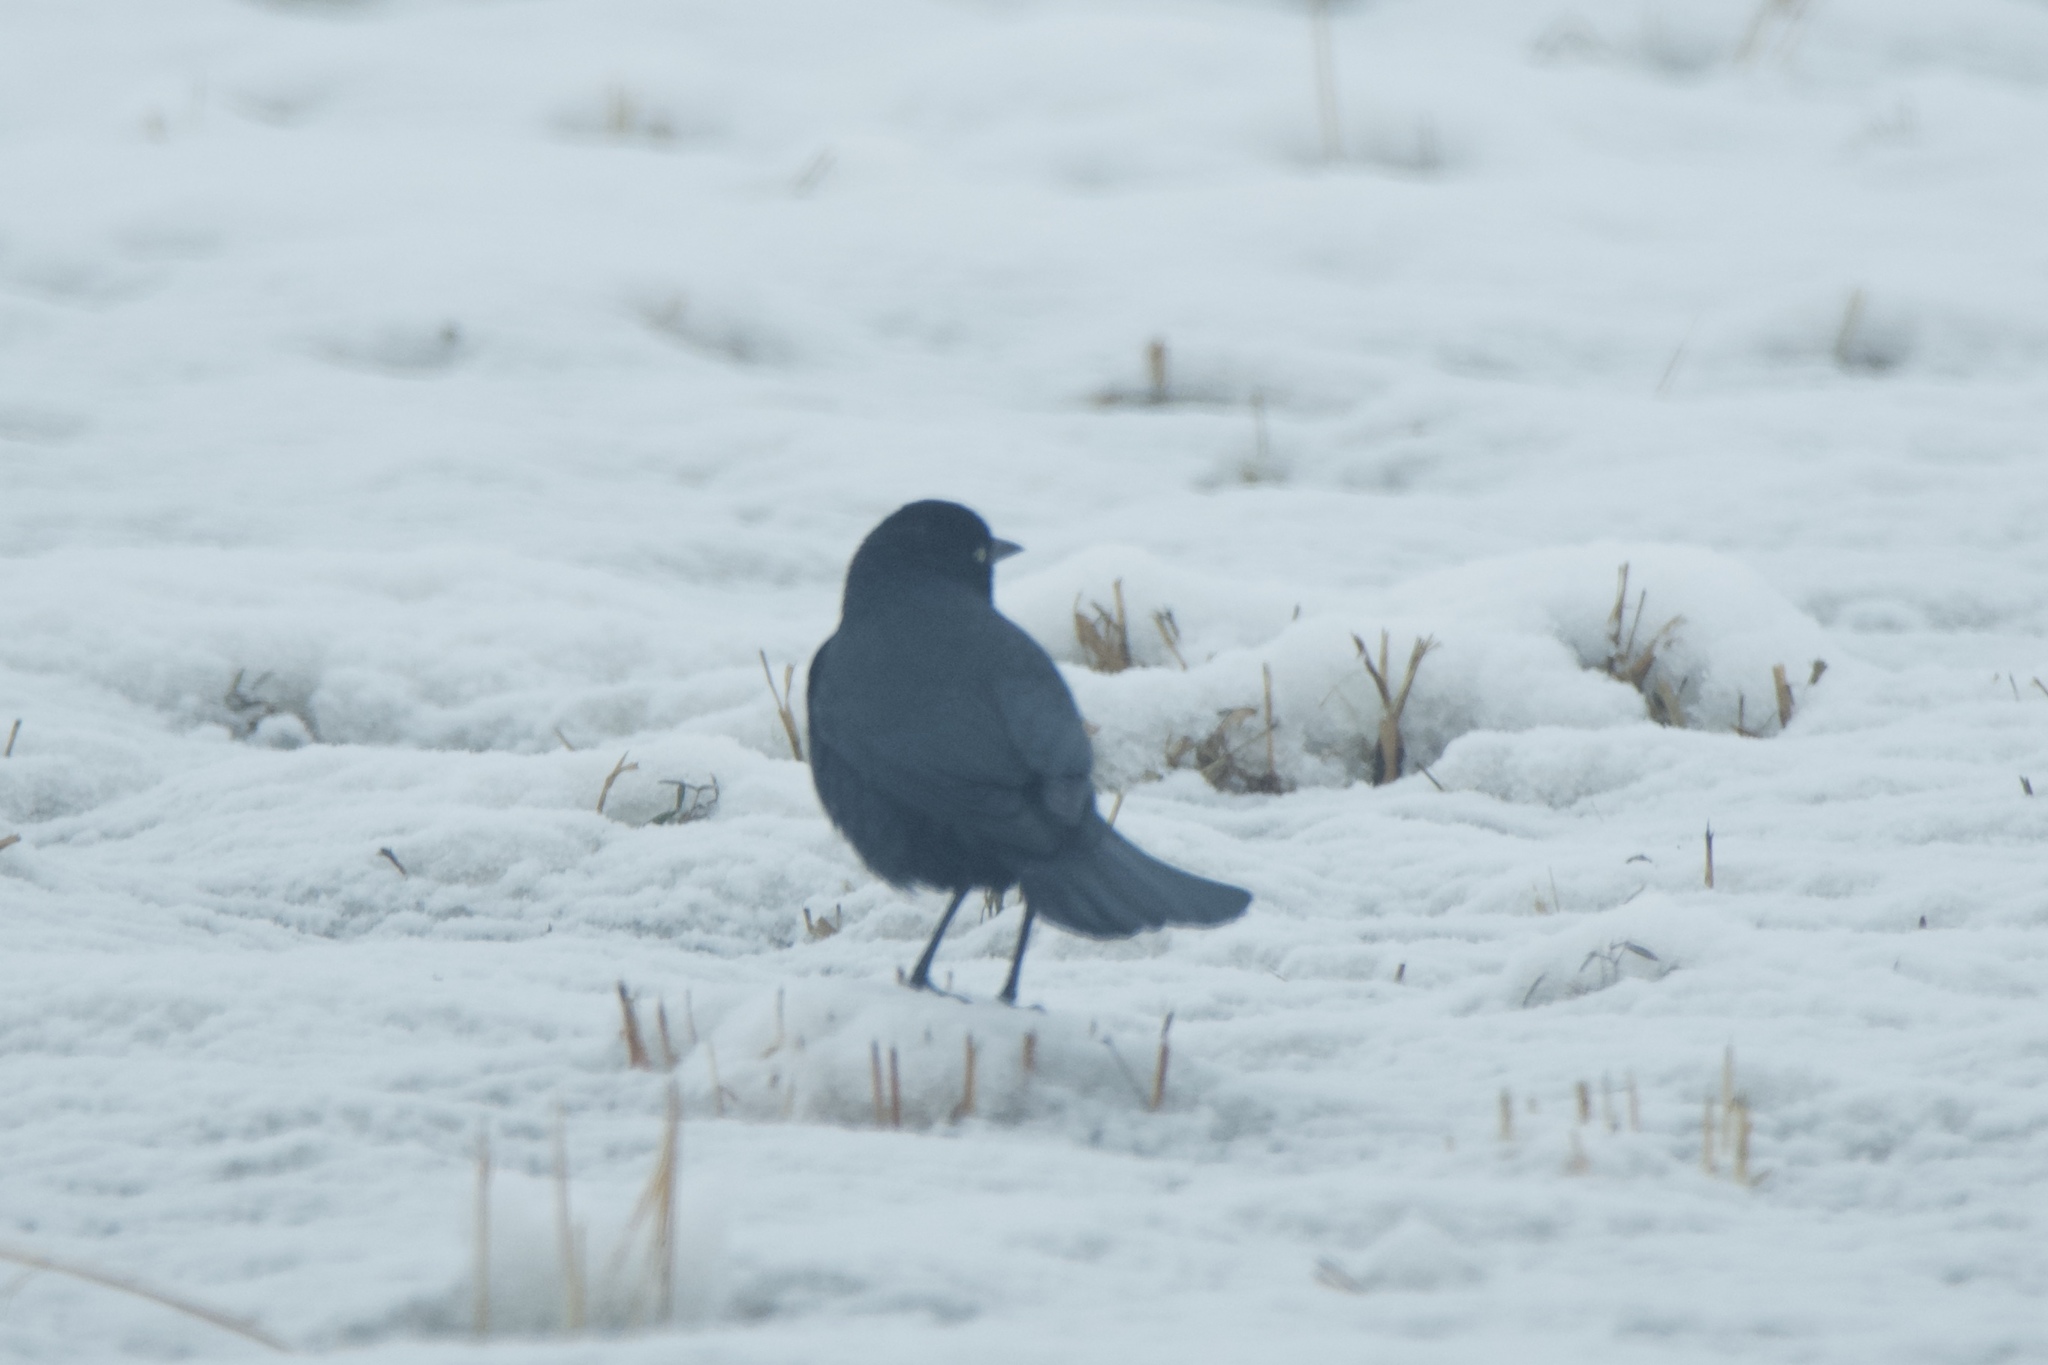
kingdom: Animalia
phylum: Chordata
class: Aves
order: Passeriformes
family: Icteridae
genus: Euphagus
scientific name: Euphagus cyanocephalus
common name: Brewer's blackbird
